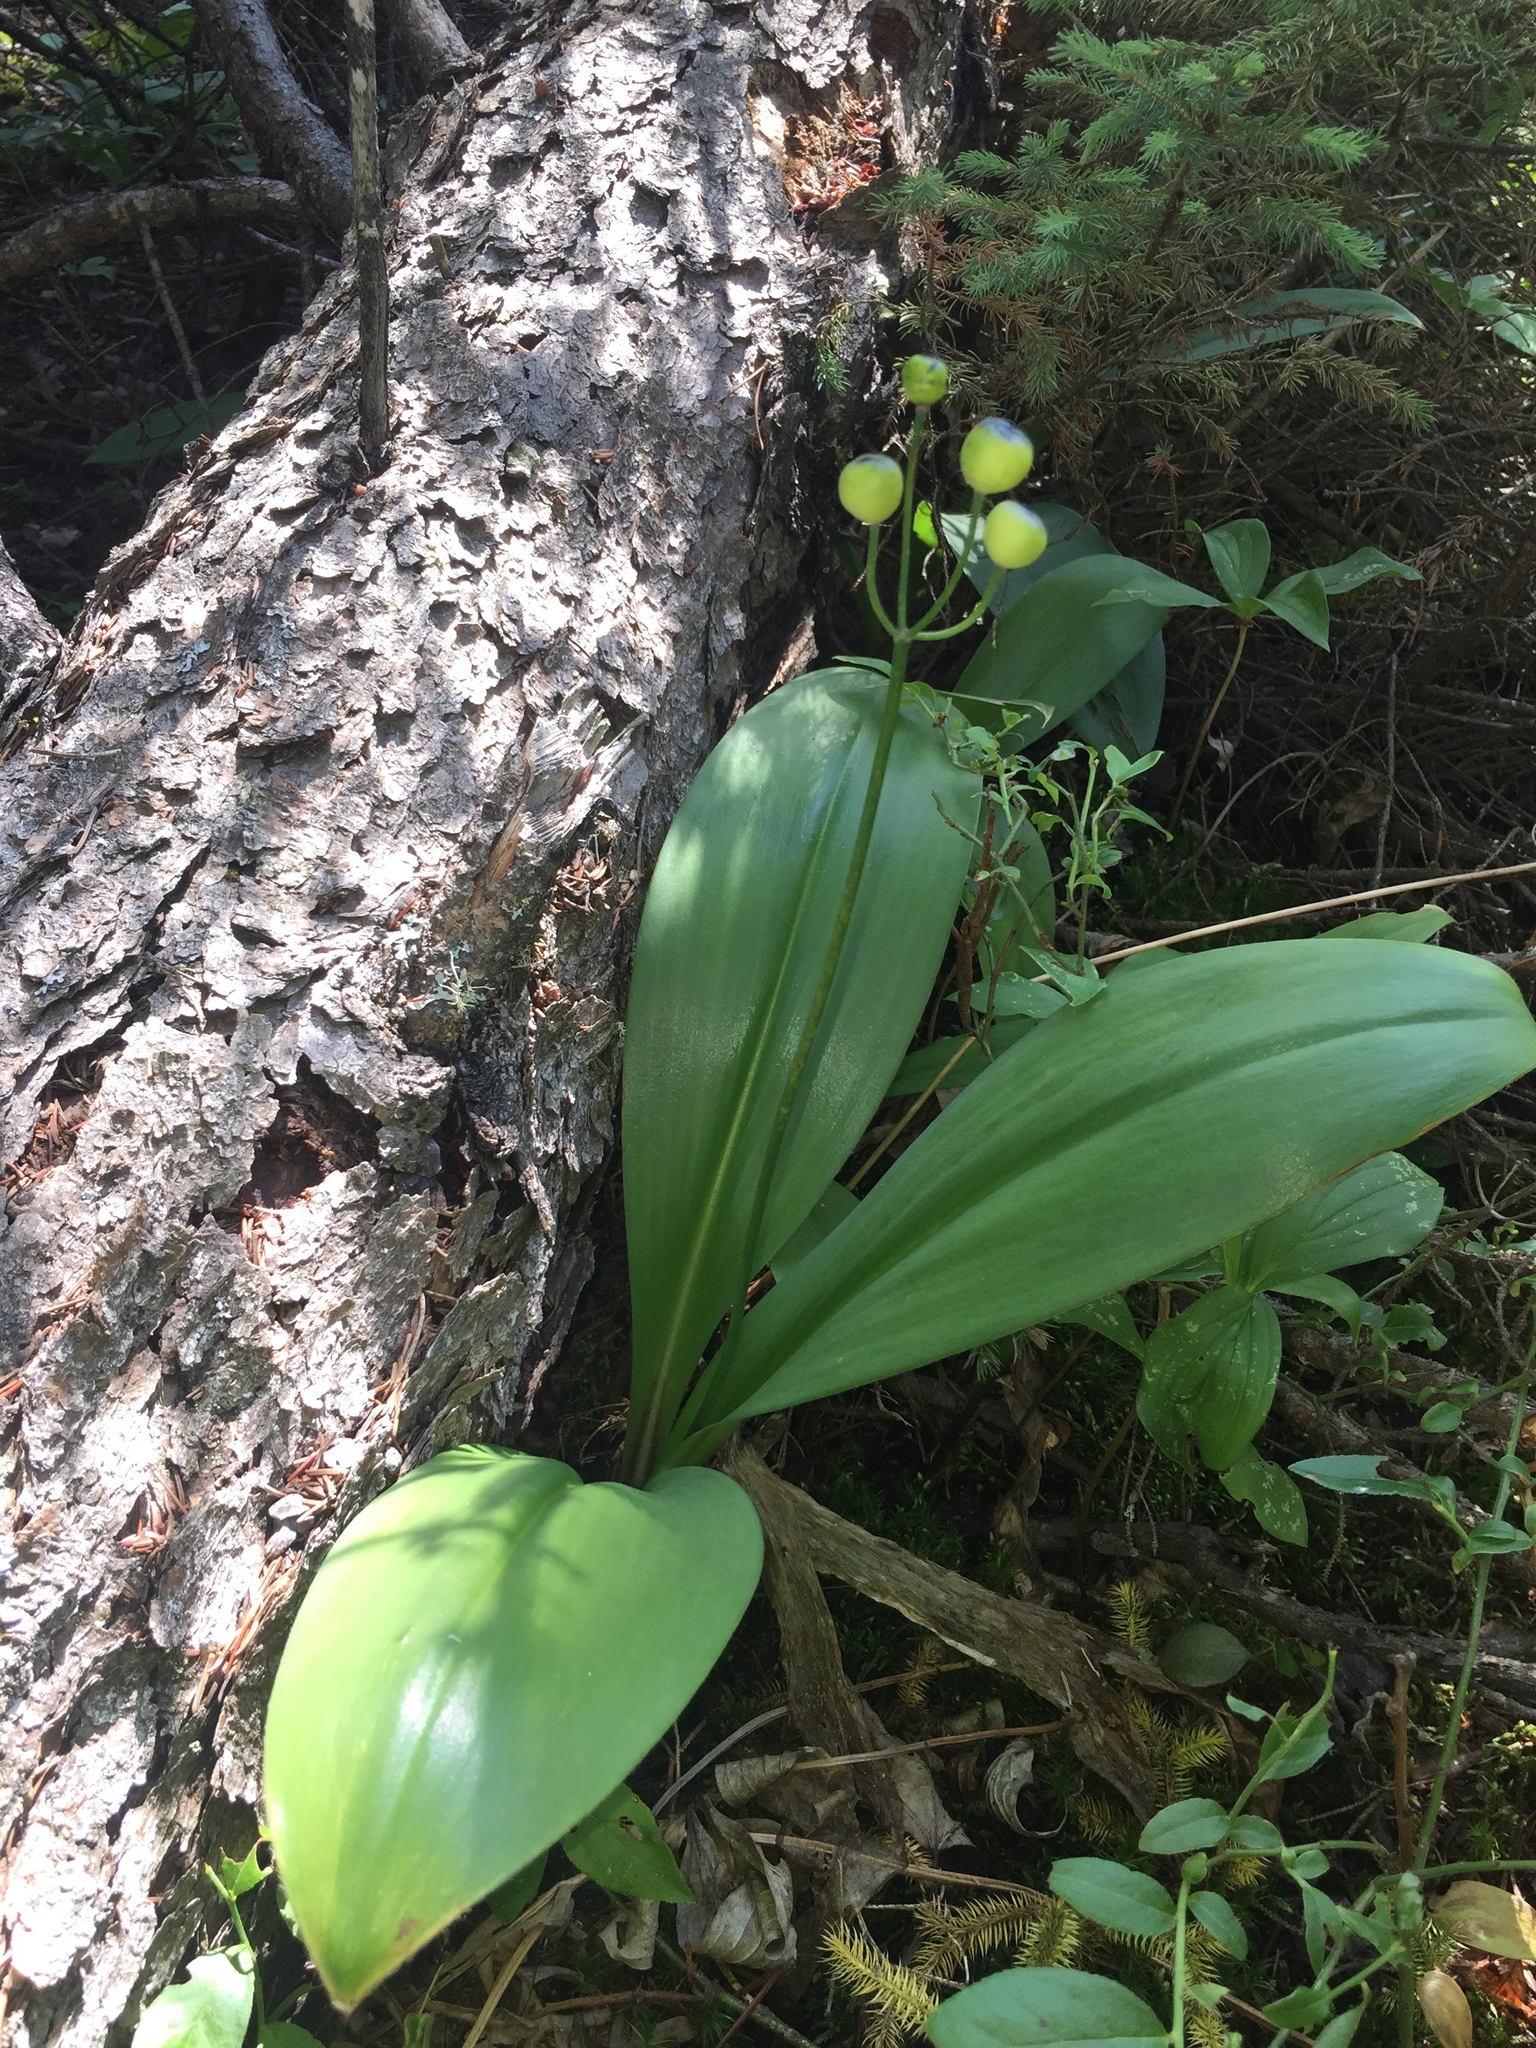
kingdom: Plantae
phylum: Tracheophyta
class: Liliopsida
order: Liliales
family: Liliaceae
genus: Clintonia
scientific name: Clintonia borealis
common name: Yellow clintonia
